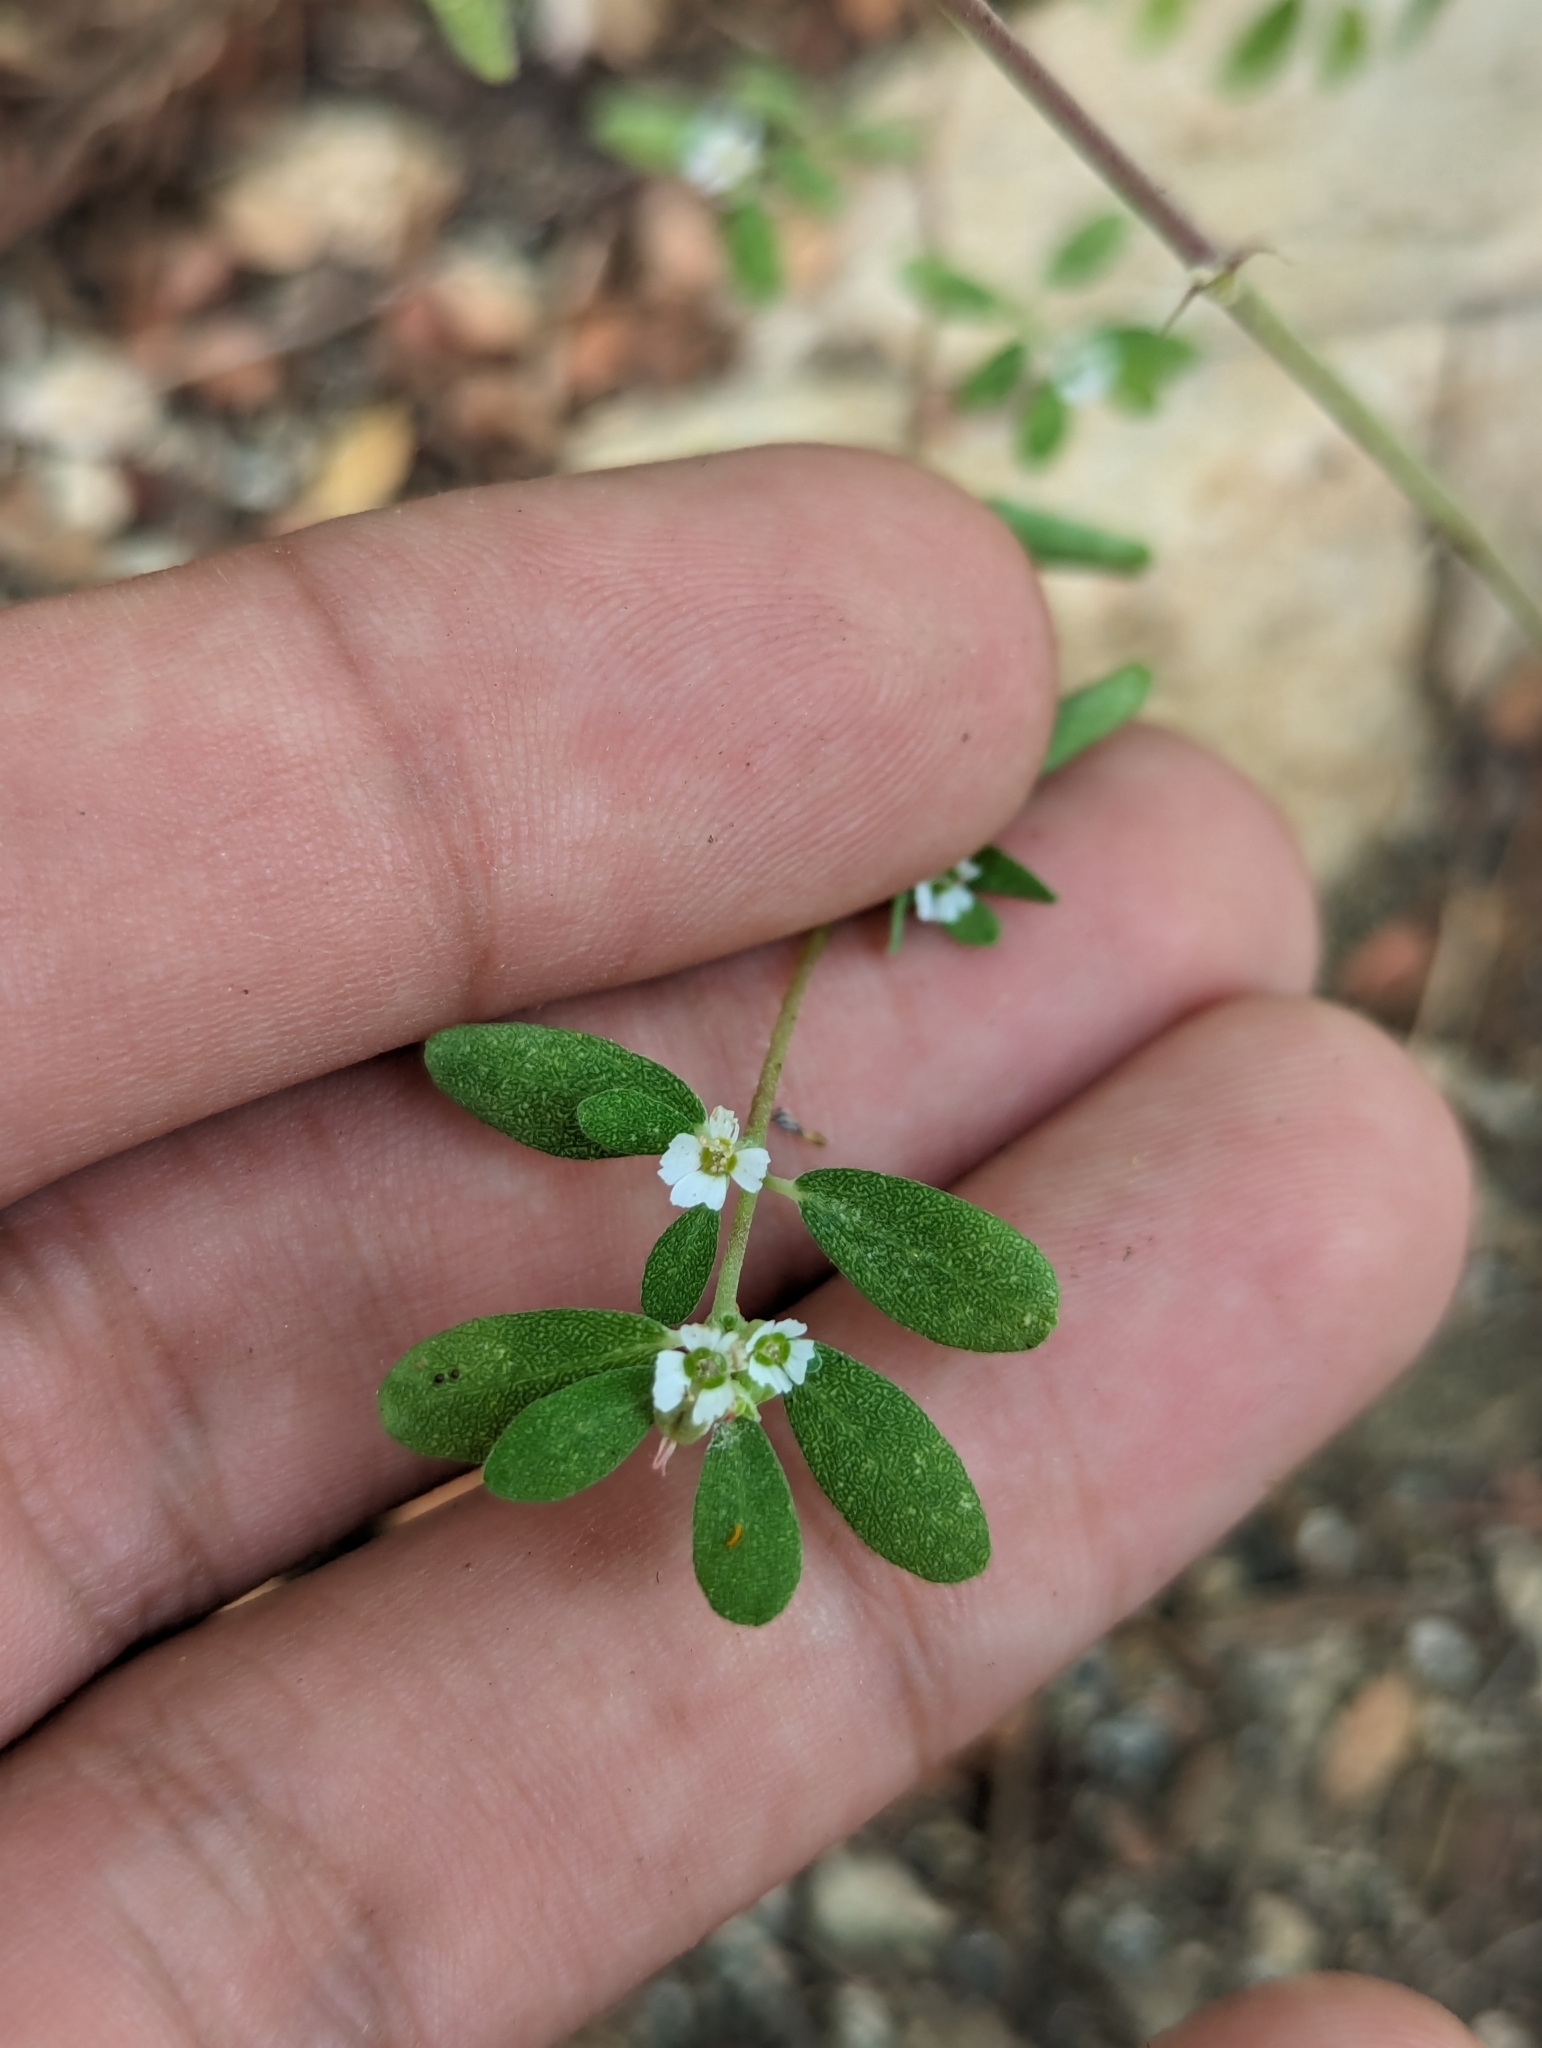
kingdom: Plantae
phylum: Tracheophyta
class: Magnoliopsida
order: Malpighiales
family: Euphorbiaceae
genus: Euphorbia
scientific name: Euphorbia pediculifera
